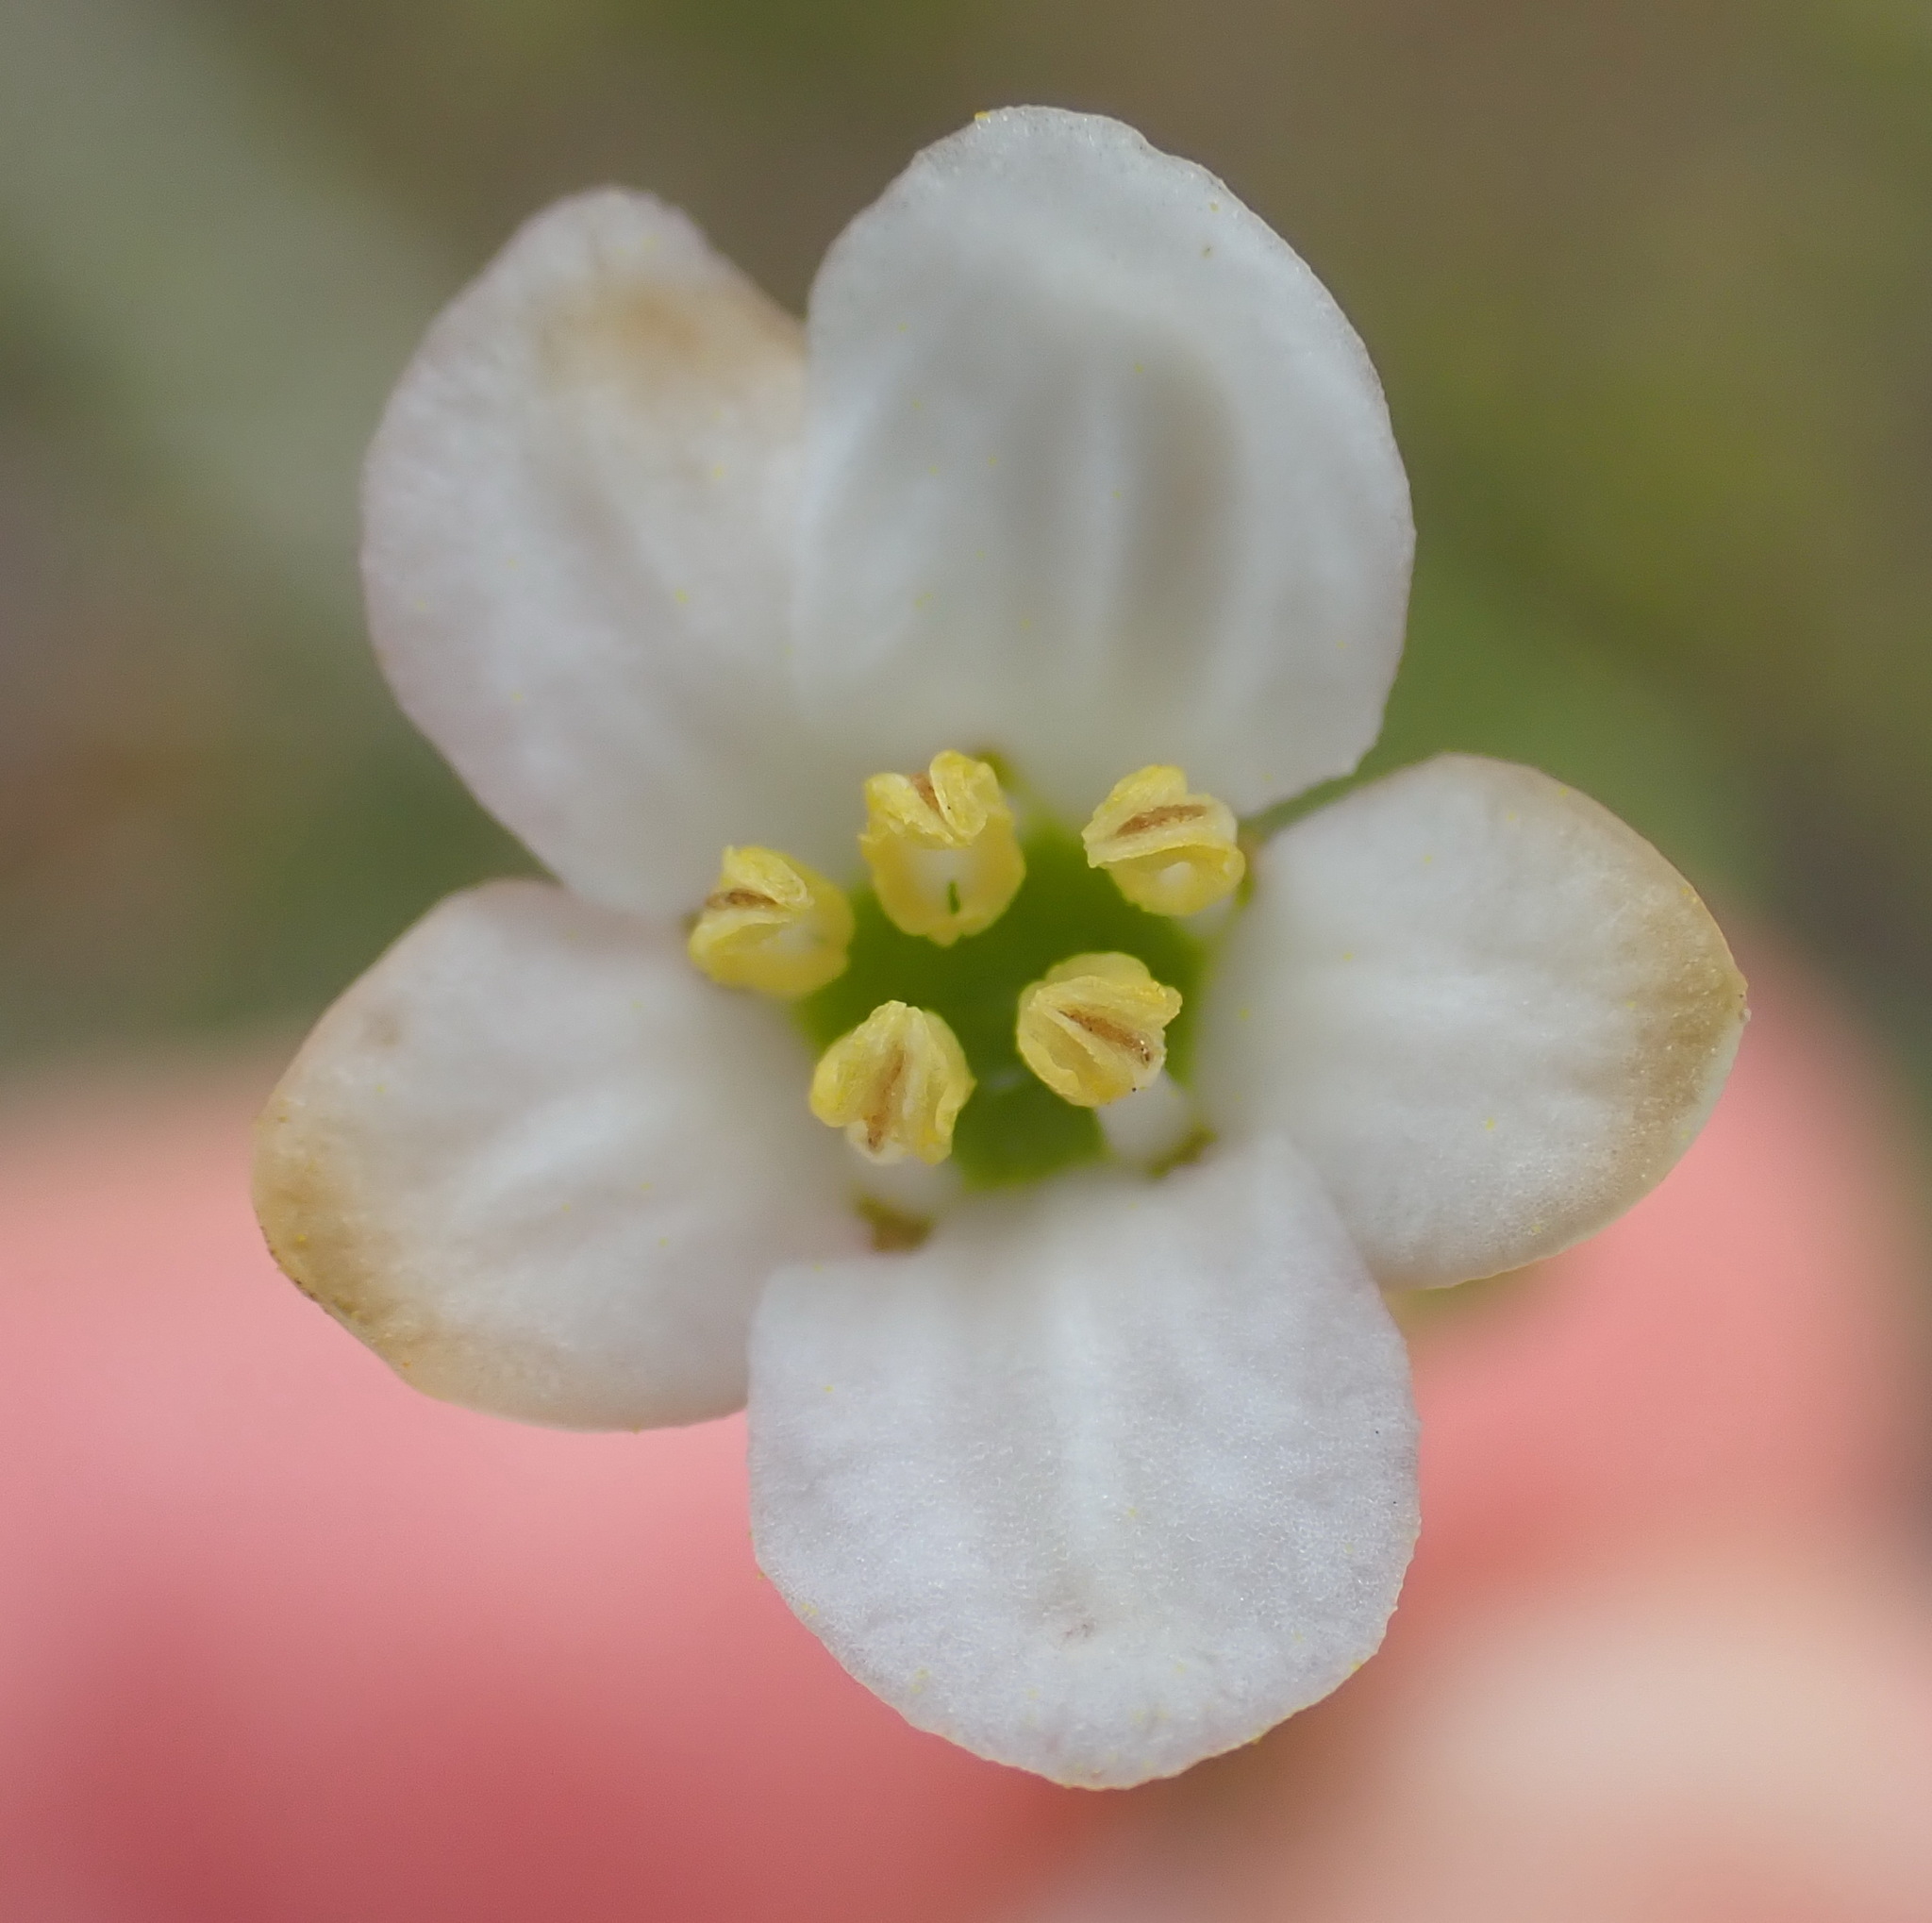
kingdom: Plantae
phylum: Tracheophyta
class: Magnoliopsida
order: Solanales
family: Montiniaceae
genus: Montinia
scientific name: Montinia caryophyllacea
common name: Wild clove-bush
